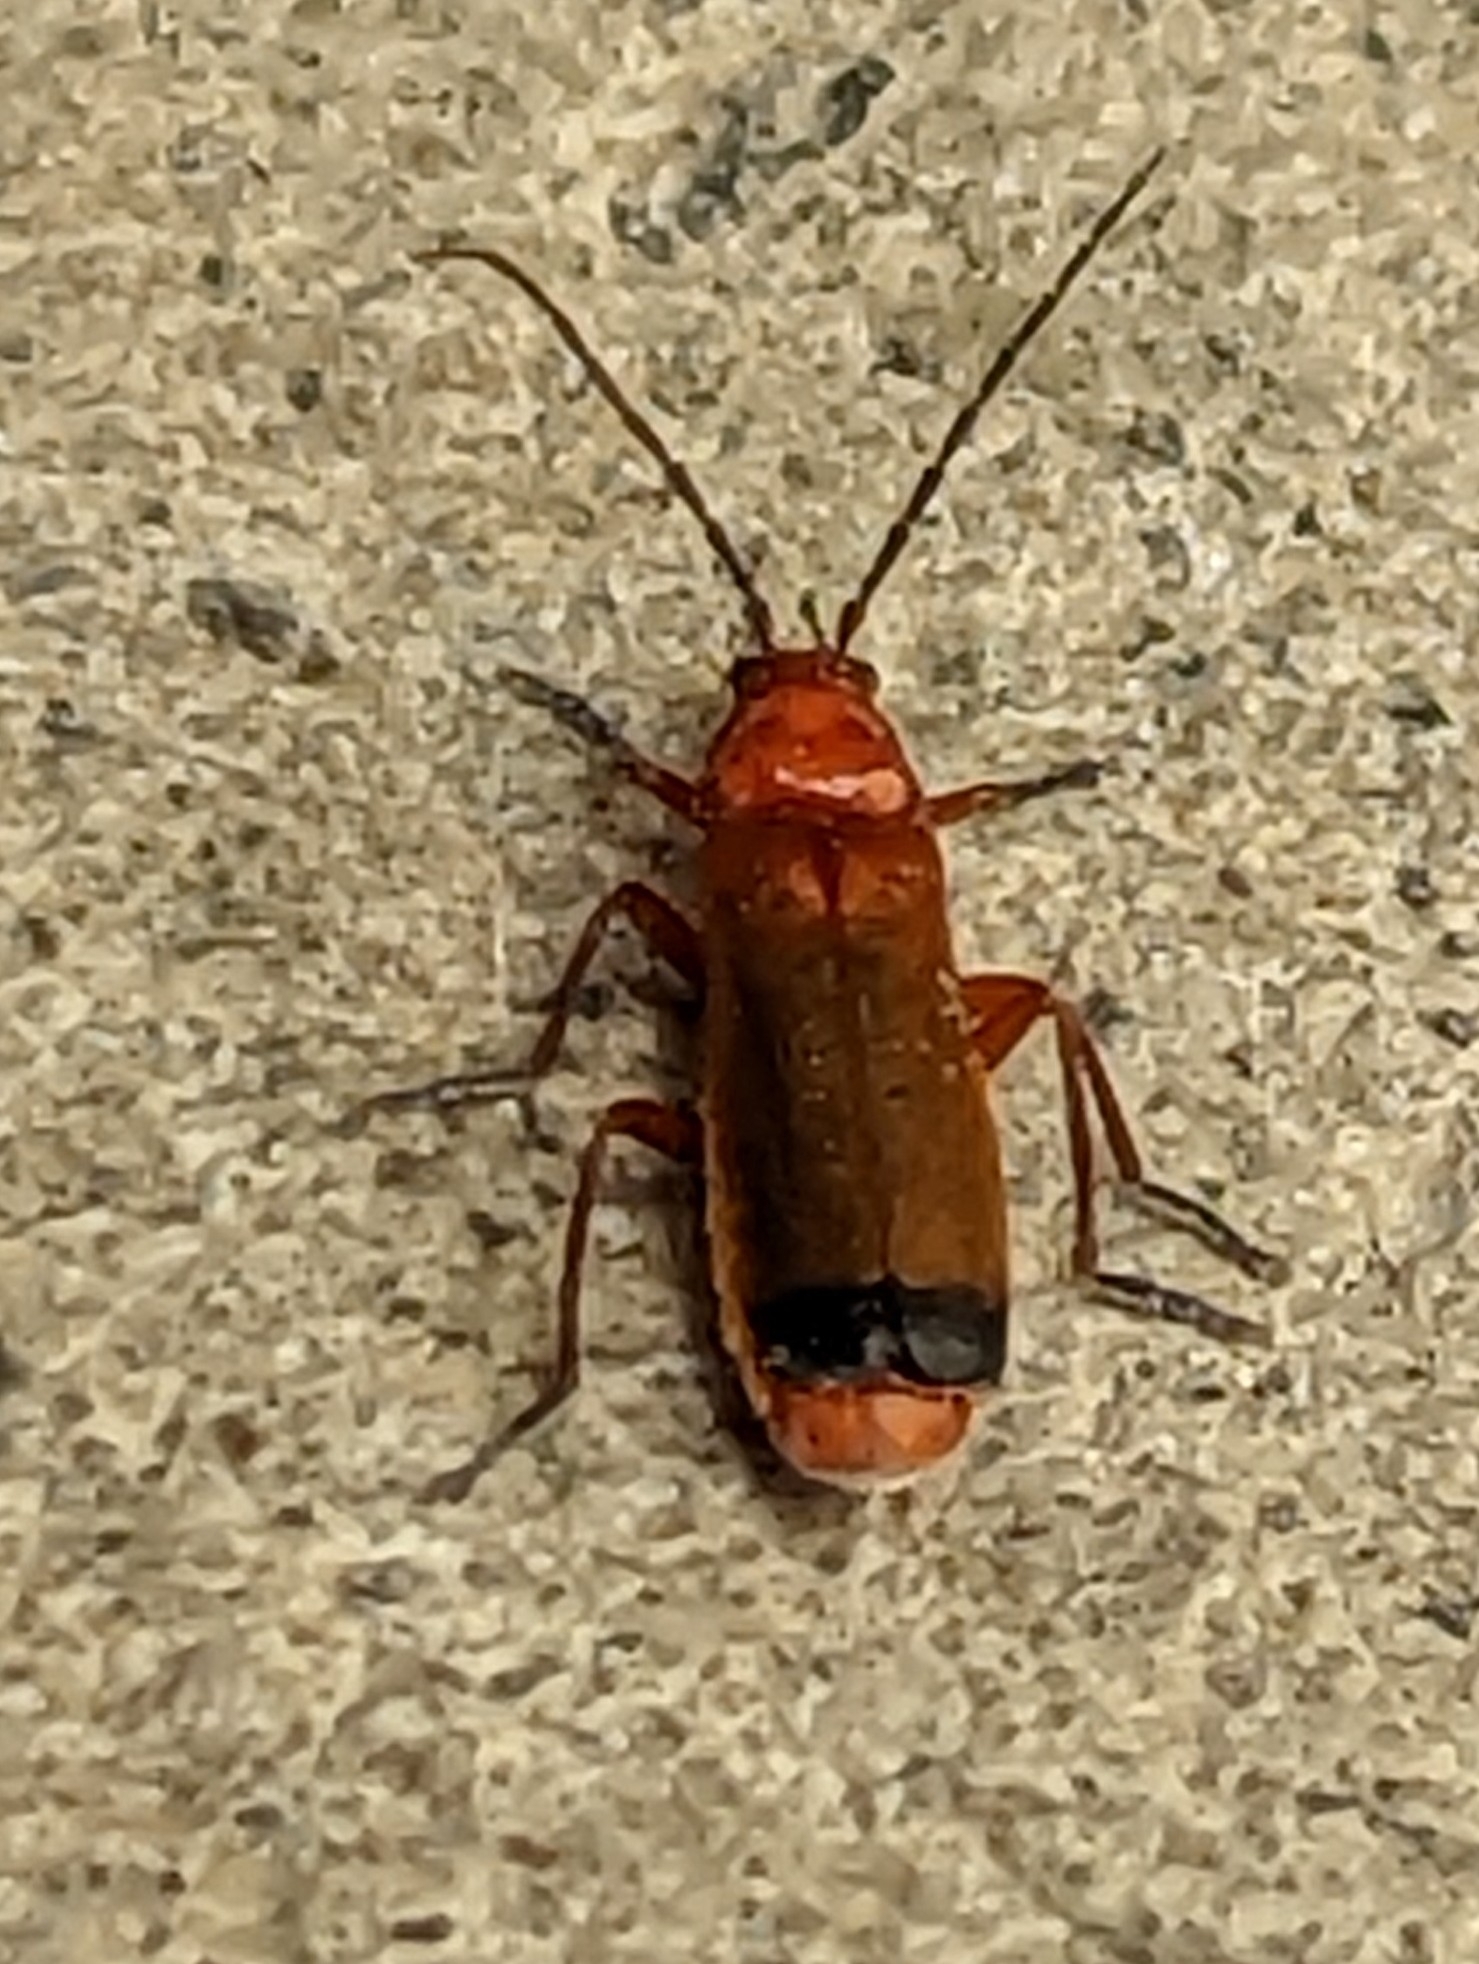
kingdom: Animalia
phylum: Arthropoda
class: Insecta
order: Coleoptera
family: Cantharidae
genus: Rhagonycha
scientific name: Rhagonycha fulva
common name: Common red soldier beetle
